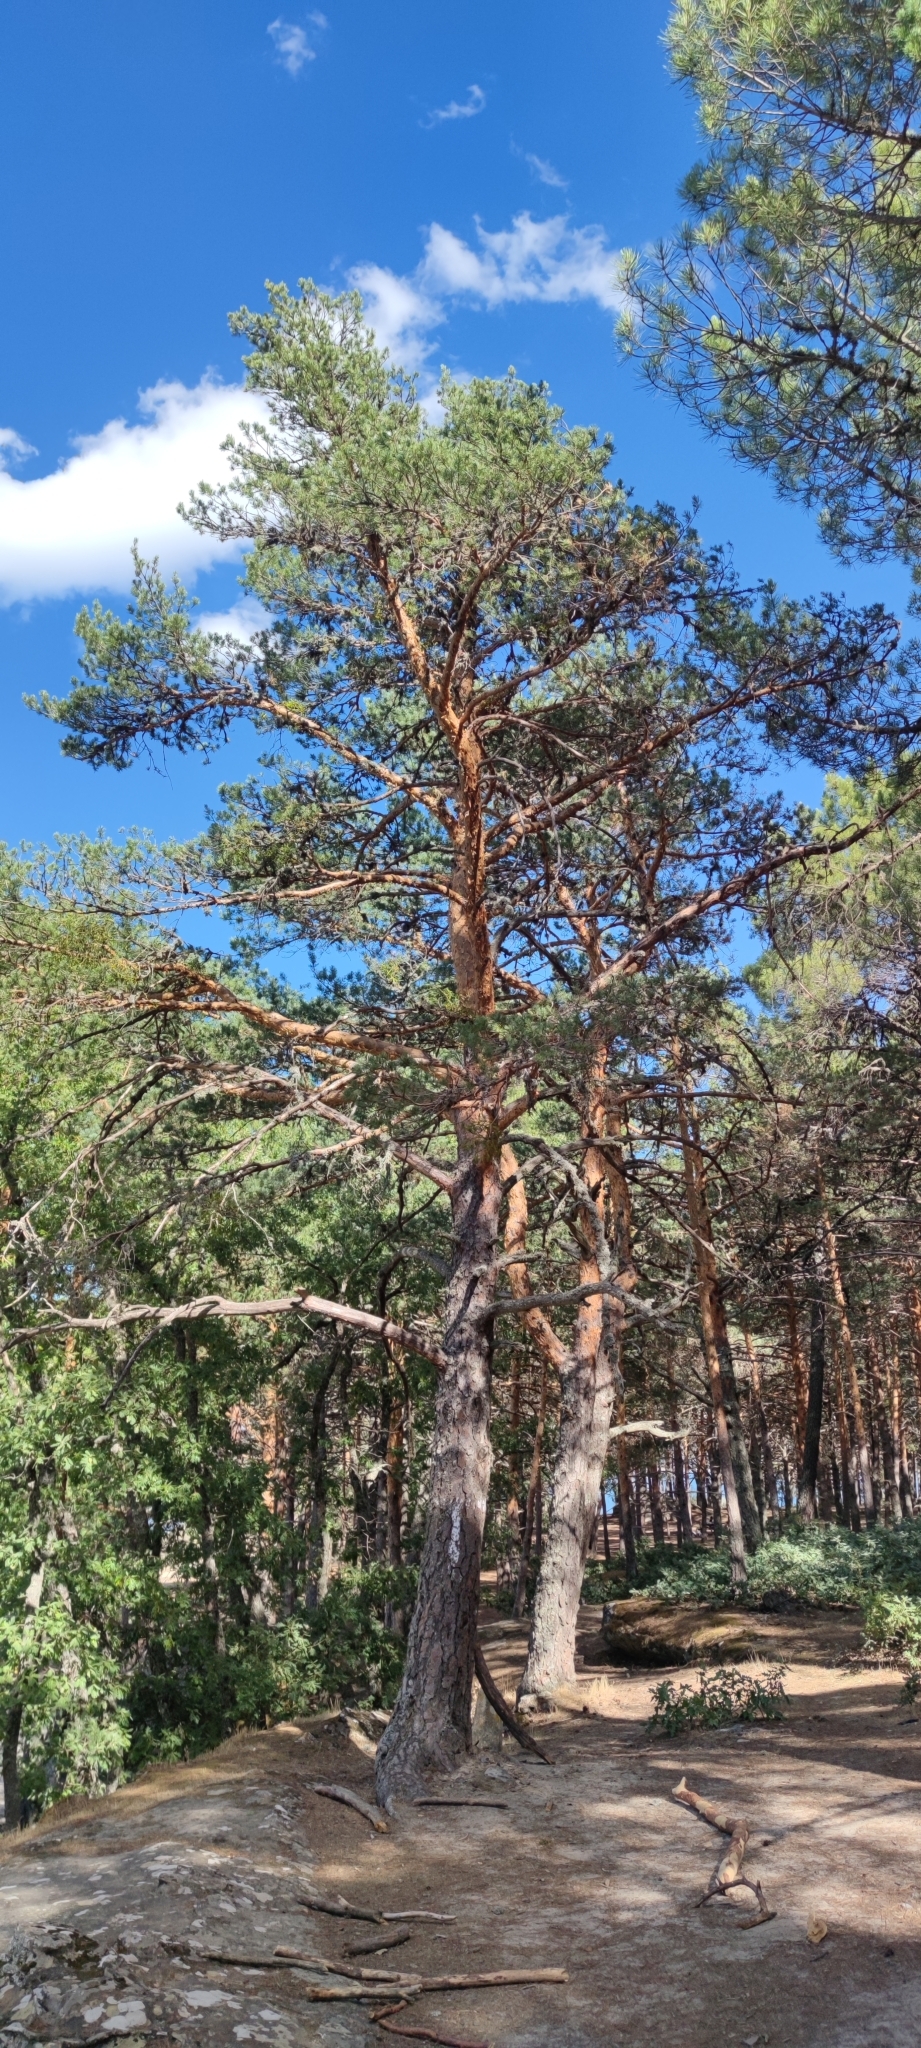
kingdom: Plantae
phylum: Tracheophyta
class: Pinopsida
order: Pinales
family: Pinaceae
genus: Pinus
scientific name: Pinus sylvestris
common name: Scots pine
